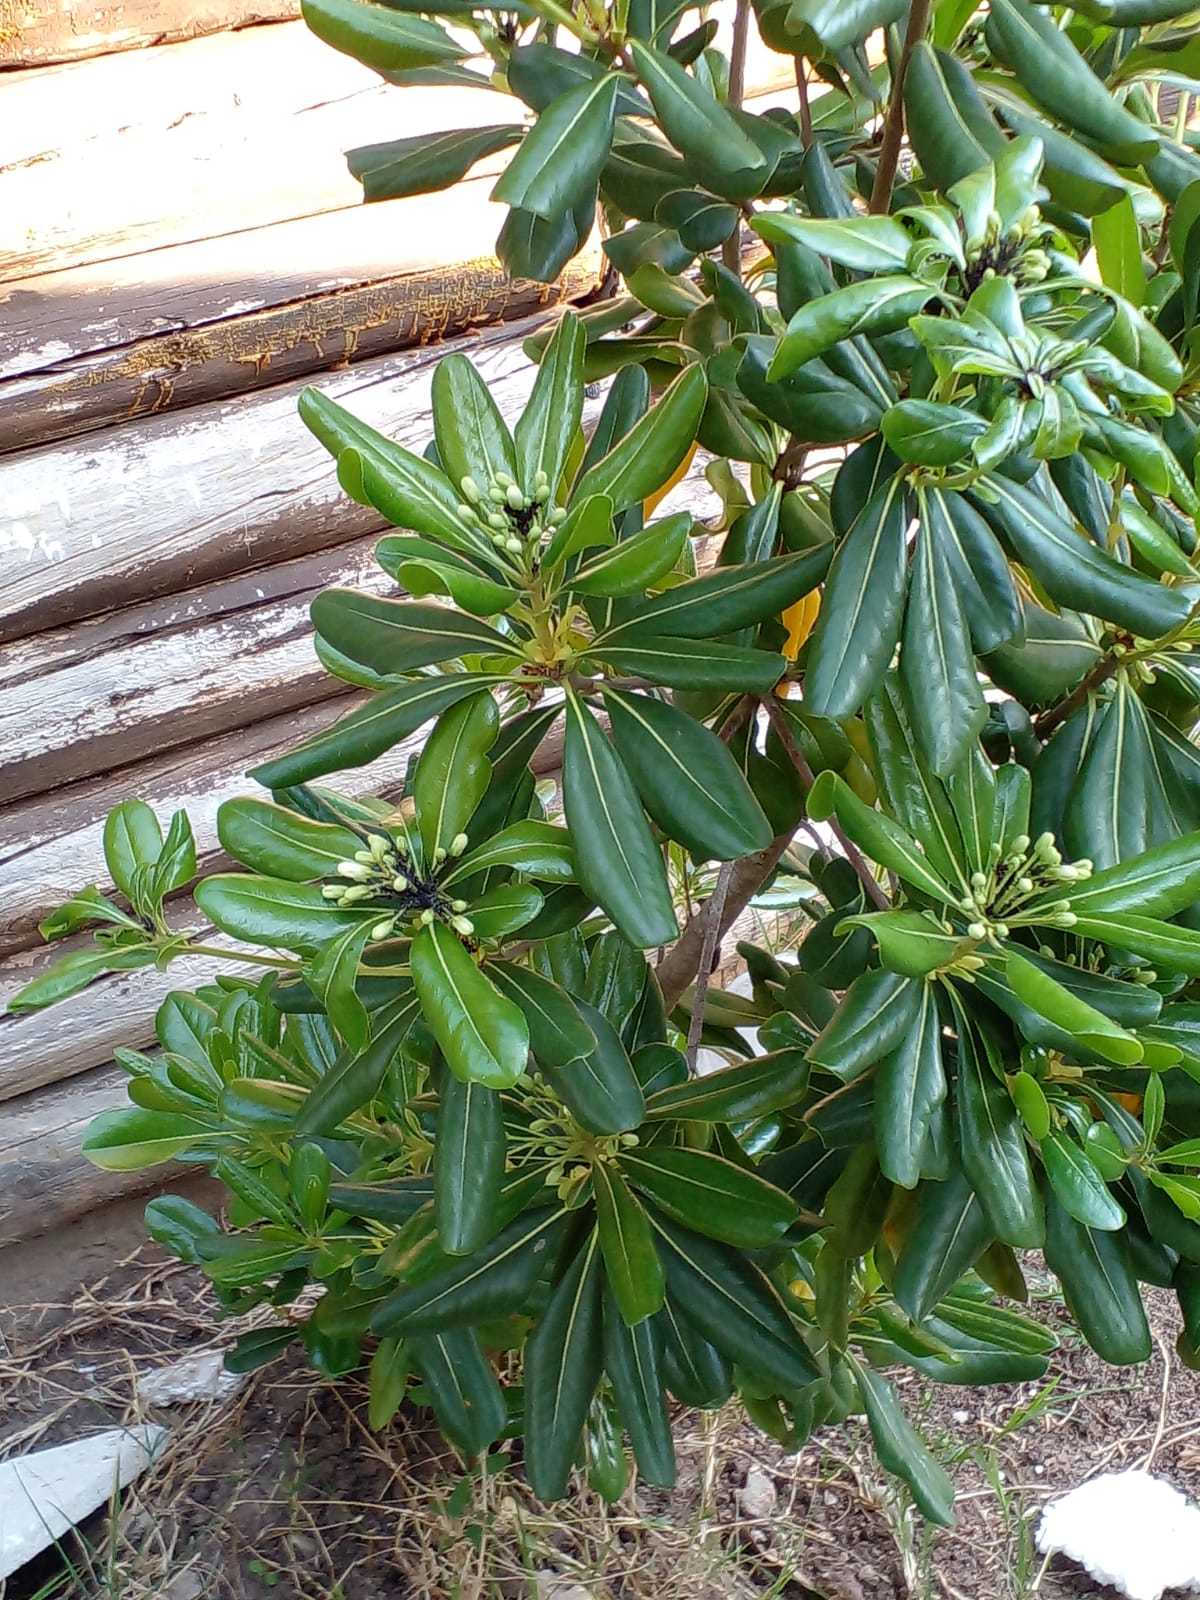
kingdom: Plantae
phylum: Tracheophyta
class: Magnoliopsida
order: Apiales
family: Pittosporaceae
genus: Pittosporum
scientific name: Pittosporum tobira
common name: Japanese cheesewood
